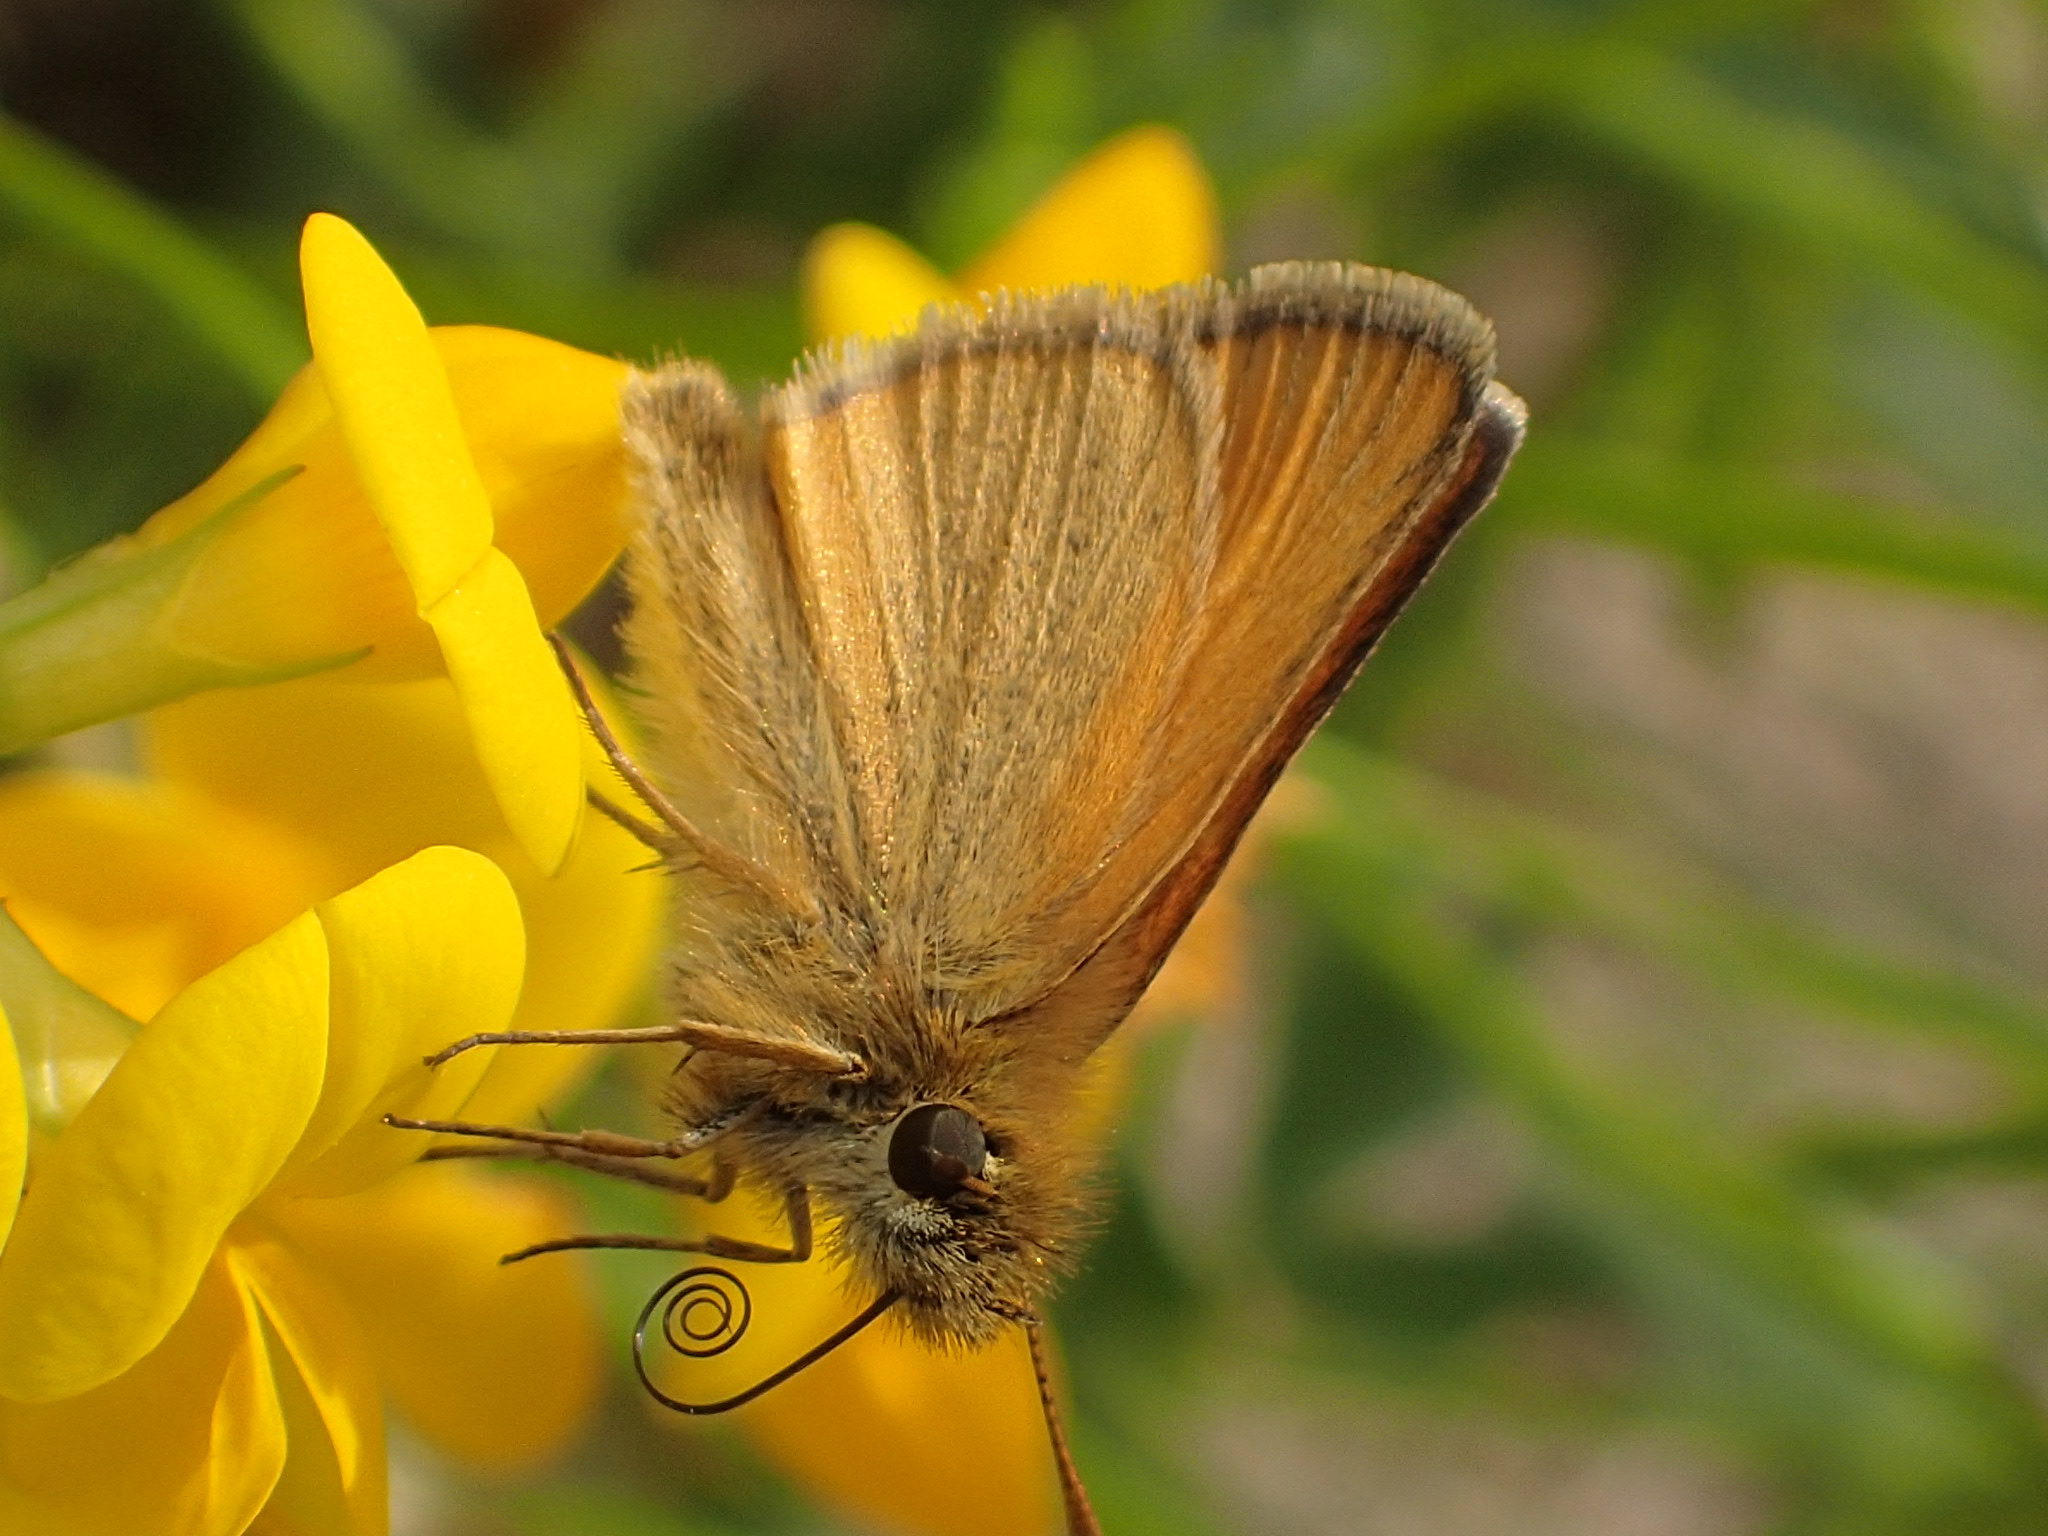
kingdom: Animalia
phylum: Arthropoda
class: Insecta
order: Lepidoptera
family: Hesperiidae
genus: Thymelicus
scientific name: Thymelicus lineola
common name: Essex skipper
